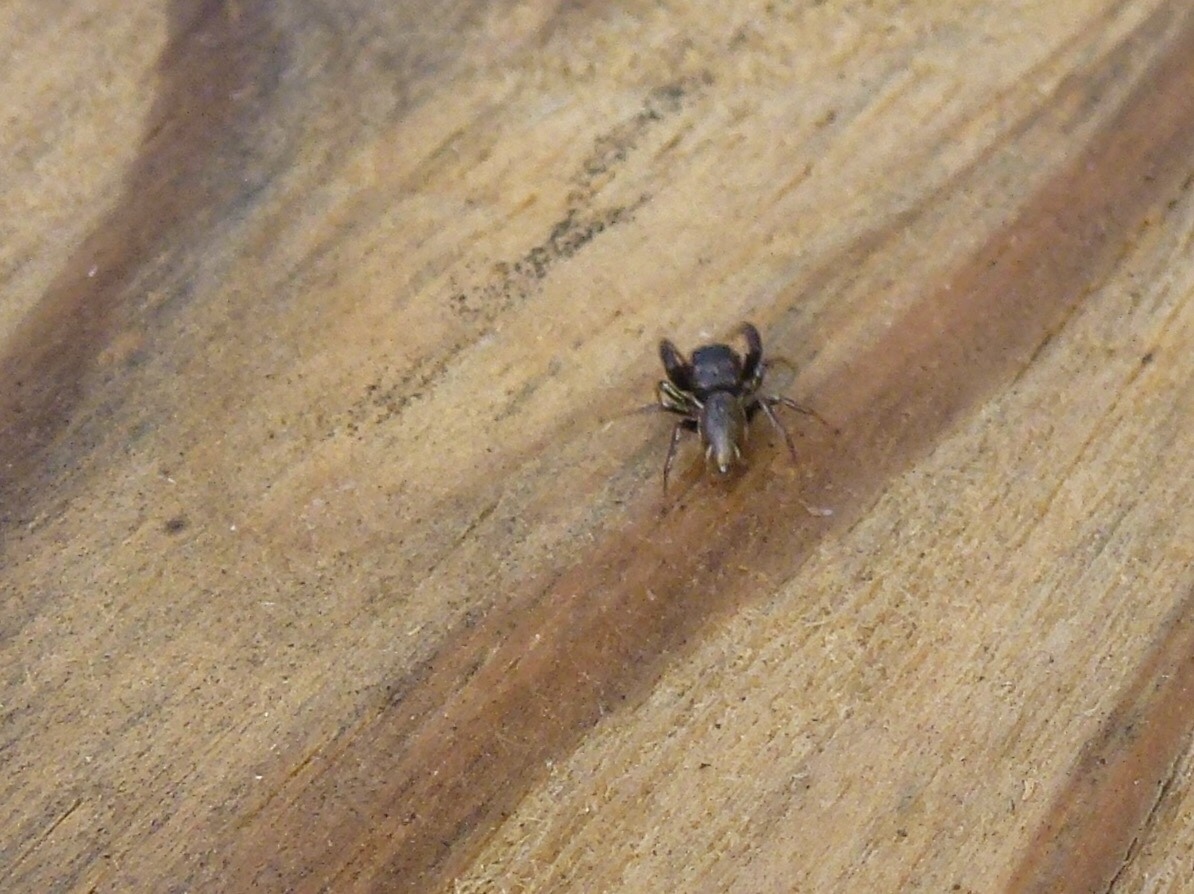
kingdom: Animalia
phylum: Arthropoda
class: Arachnida
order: Araneae
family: Salticidae
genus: Sassacus
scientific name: Sassacus vitis
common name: Jumping spiders
